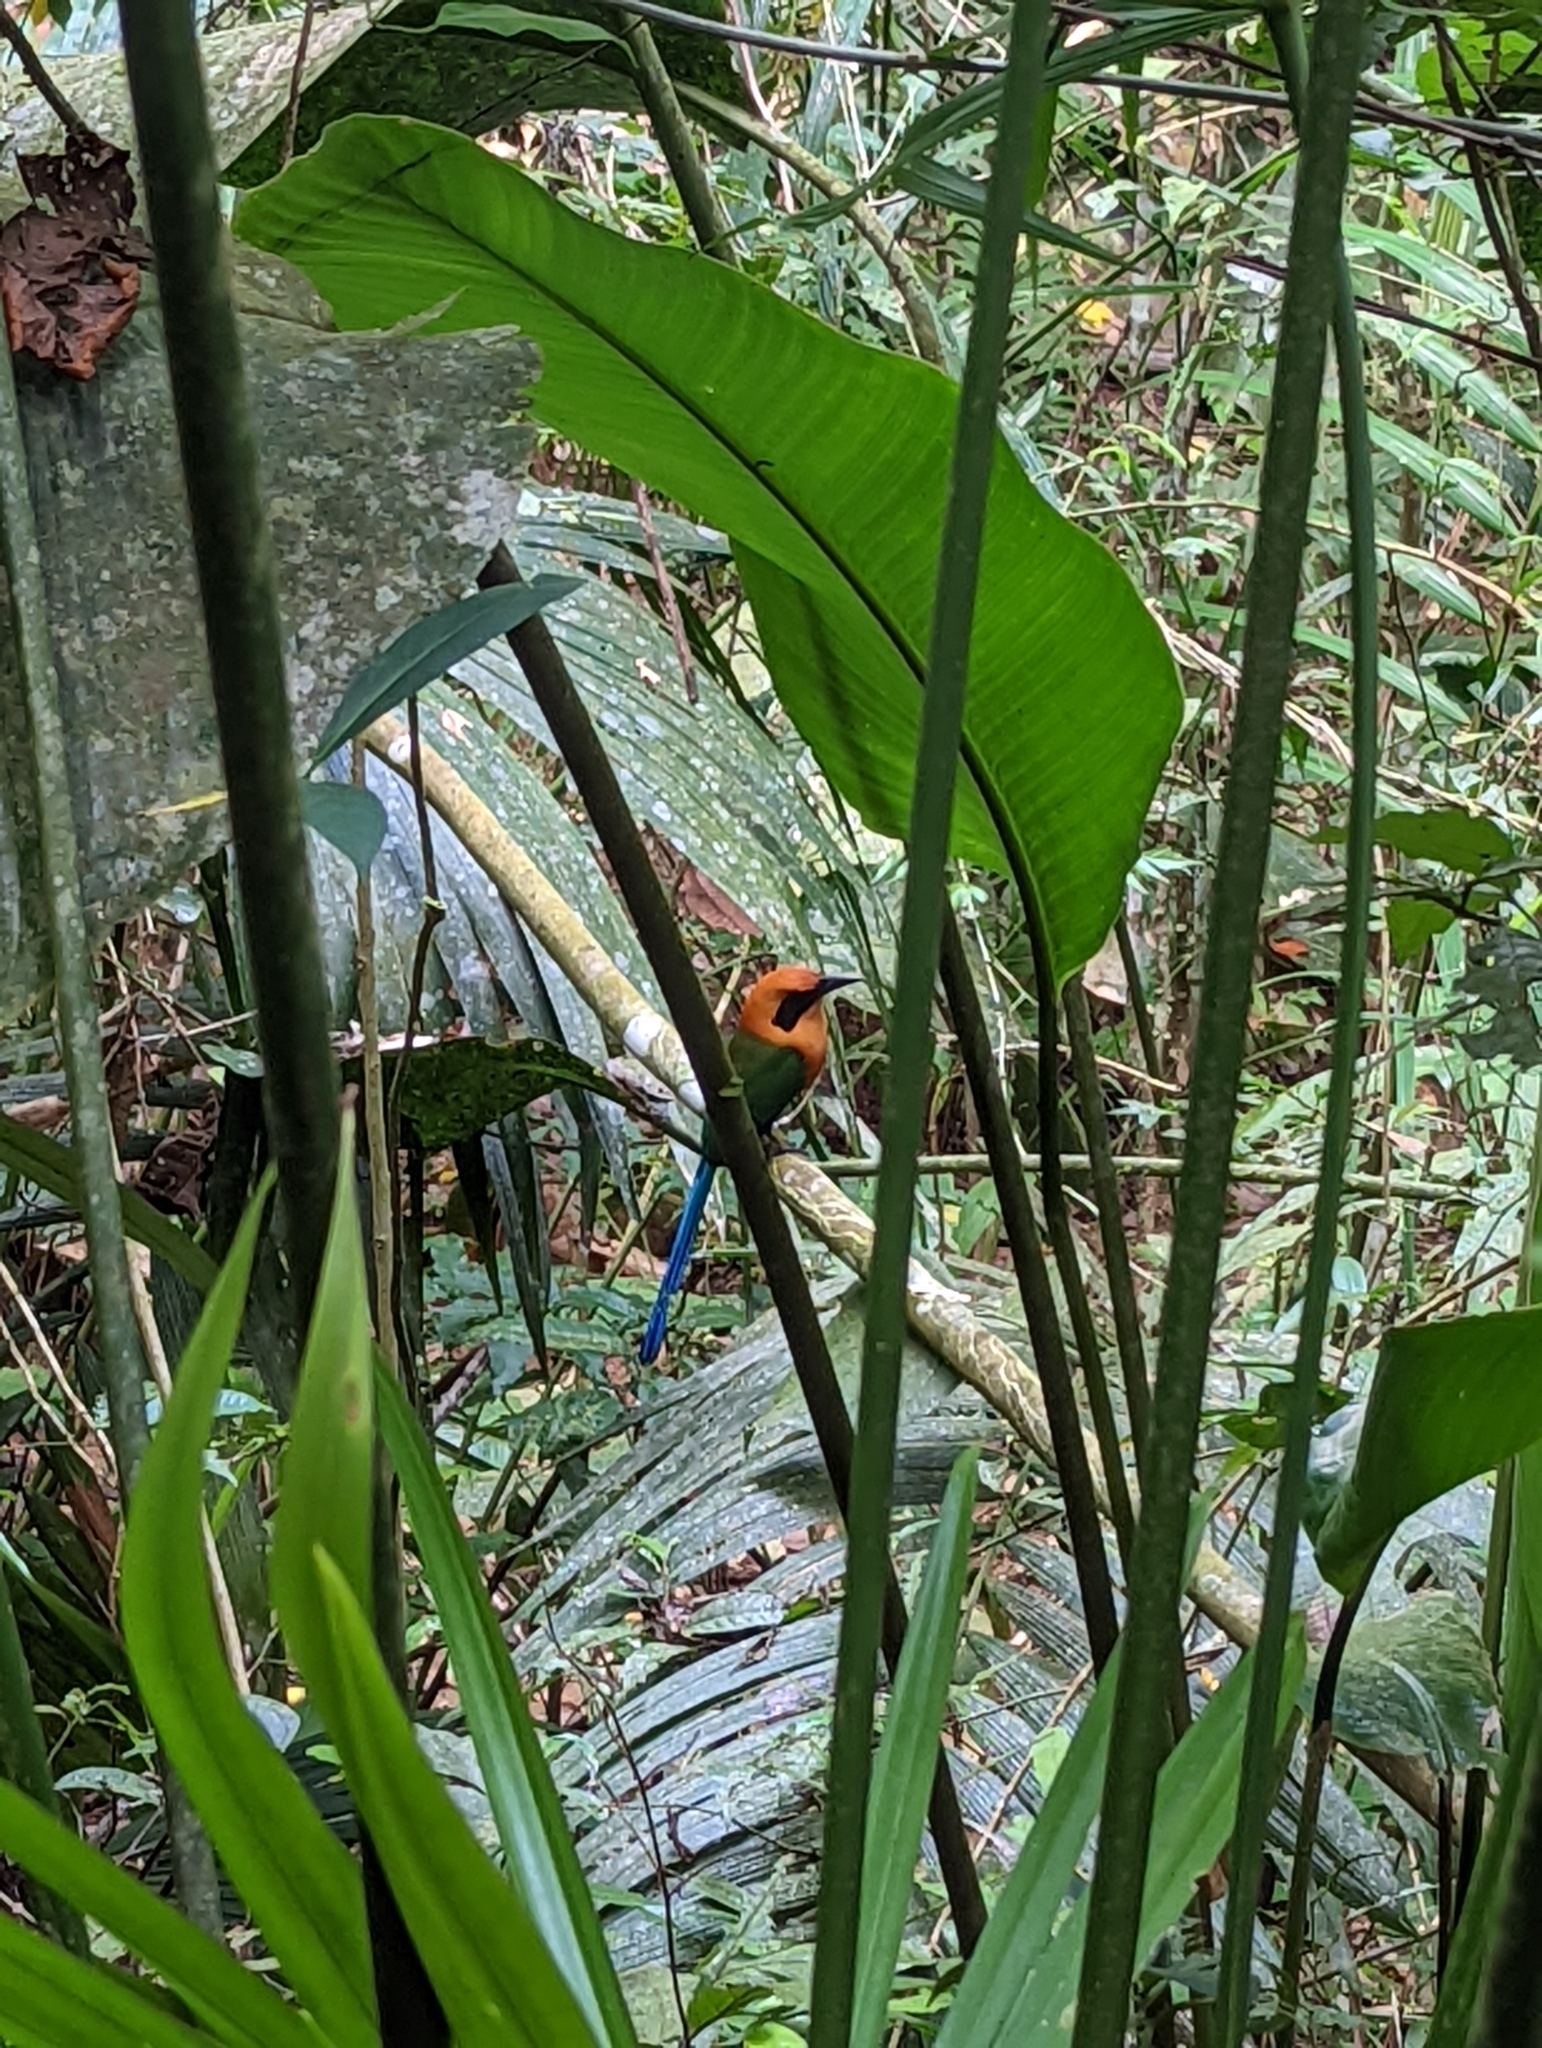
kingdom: Animalia
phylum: Chordata
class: Aves
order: Coraciiformes
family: Momotidae
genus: Baryphthengus
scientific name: Baryphthengus martii
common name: Rufous motmot
